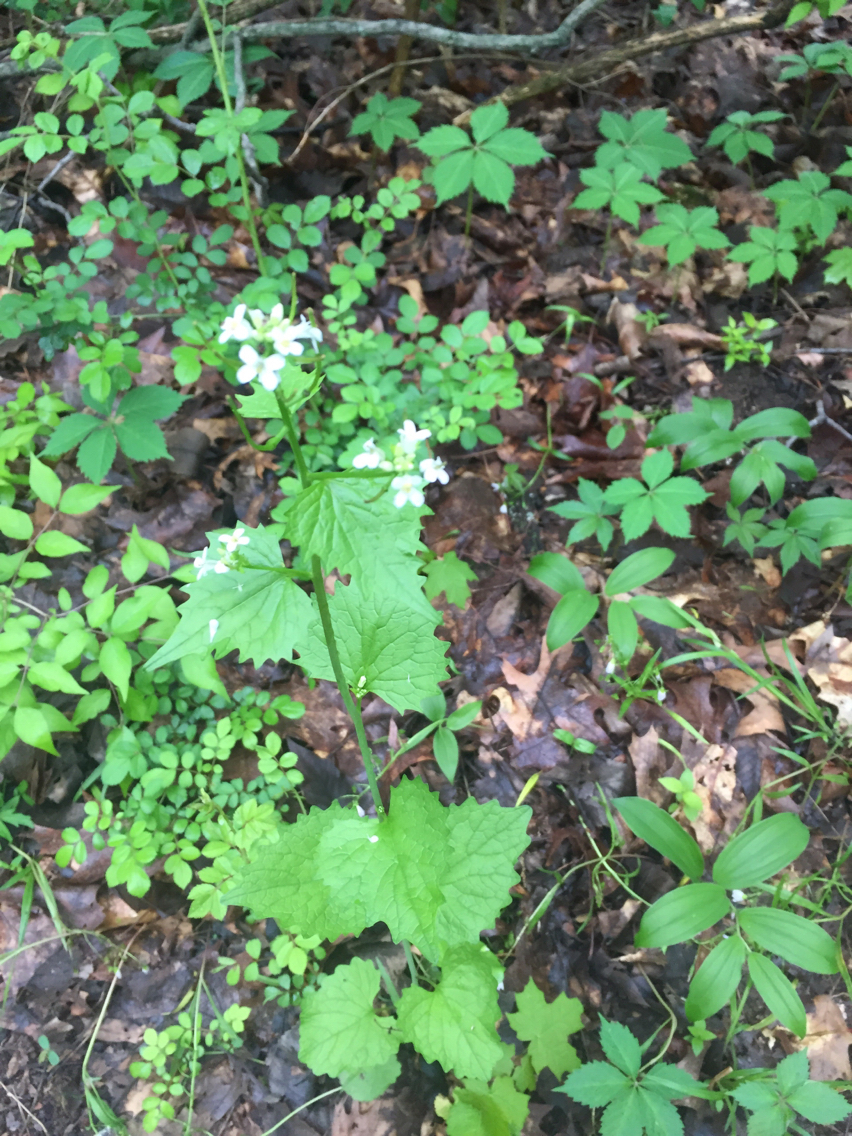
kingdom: Plantae
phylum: Tracheophyta
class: Magnoliopsida
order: Brassicales
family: Brassicaceae
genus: Alliaria
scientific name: Alliaria petiolata
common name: Garlic mustard
